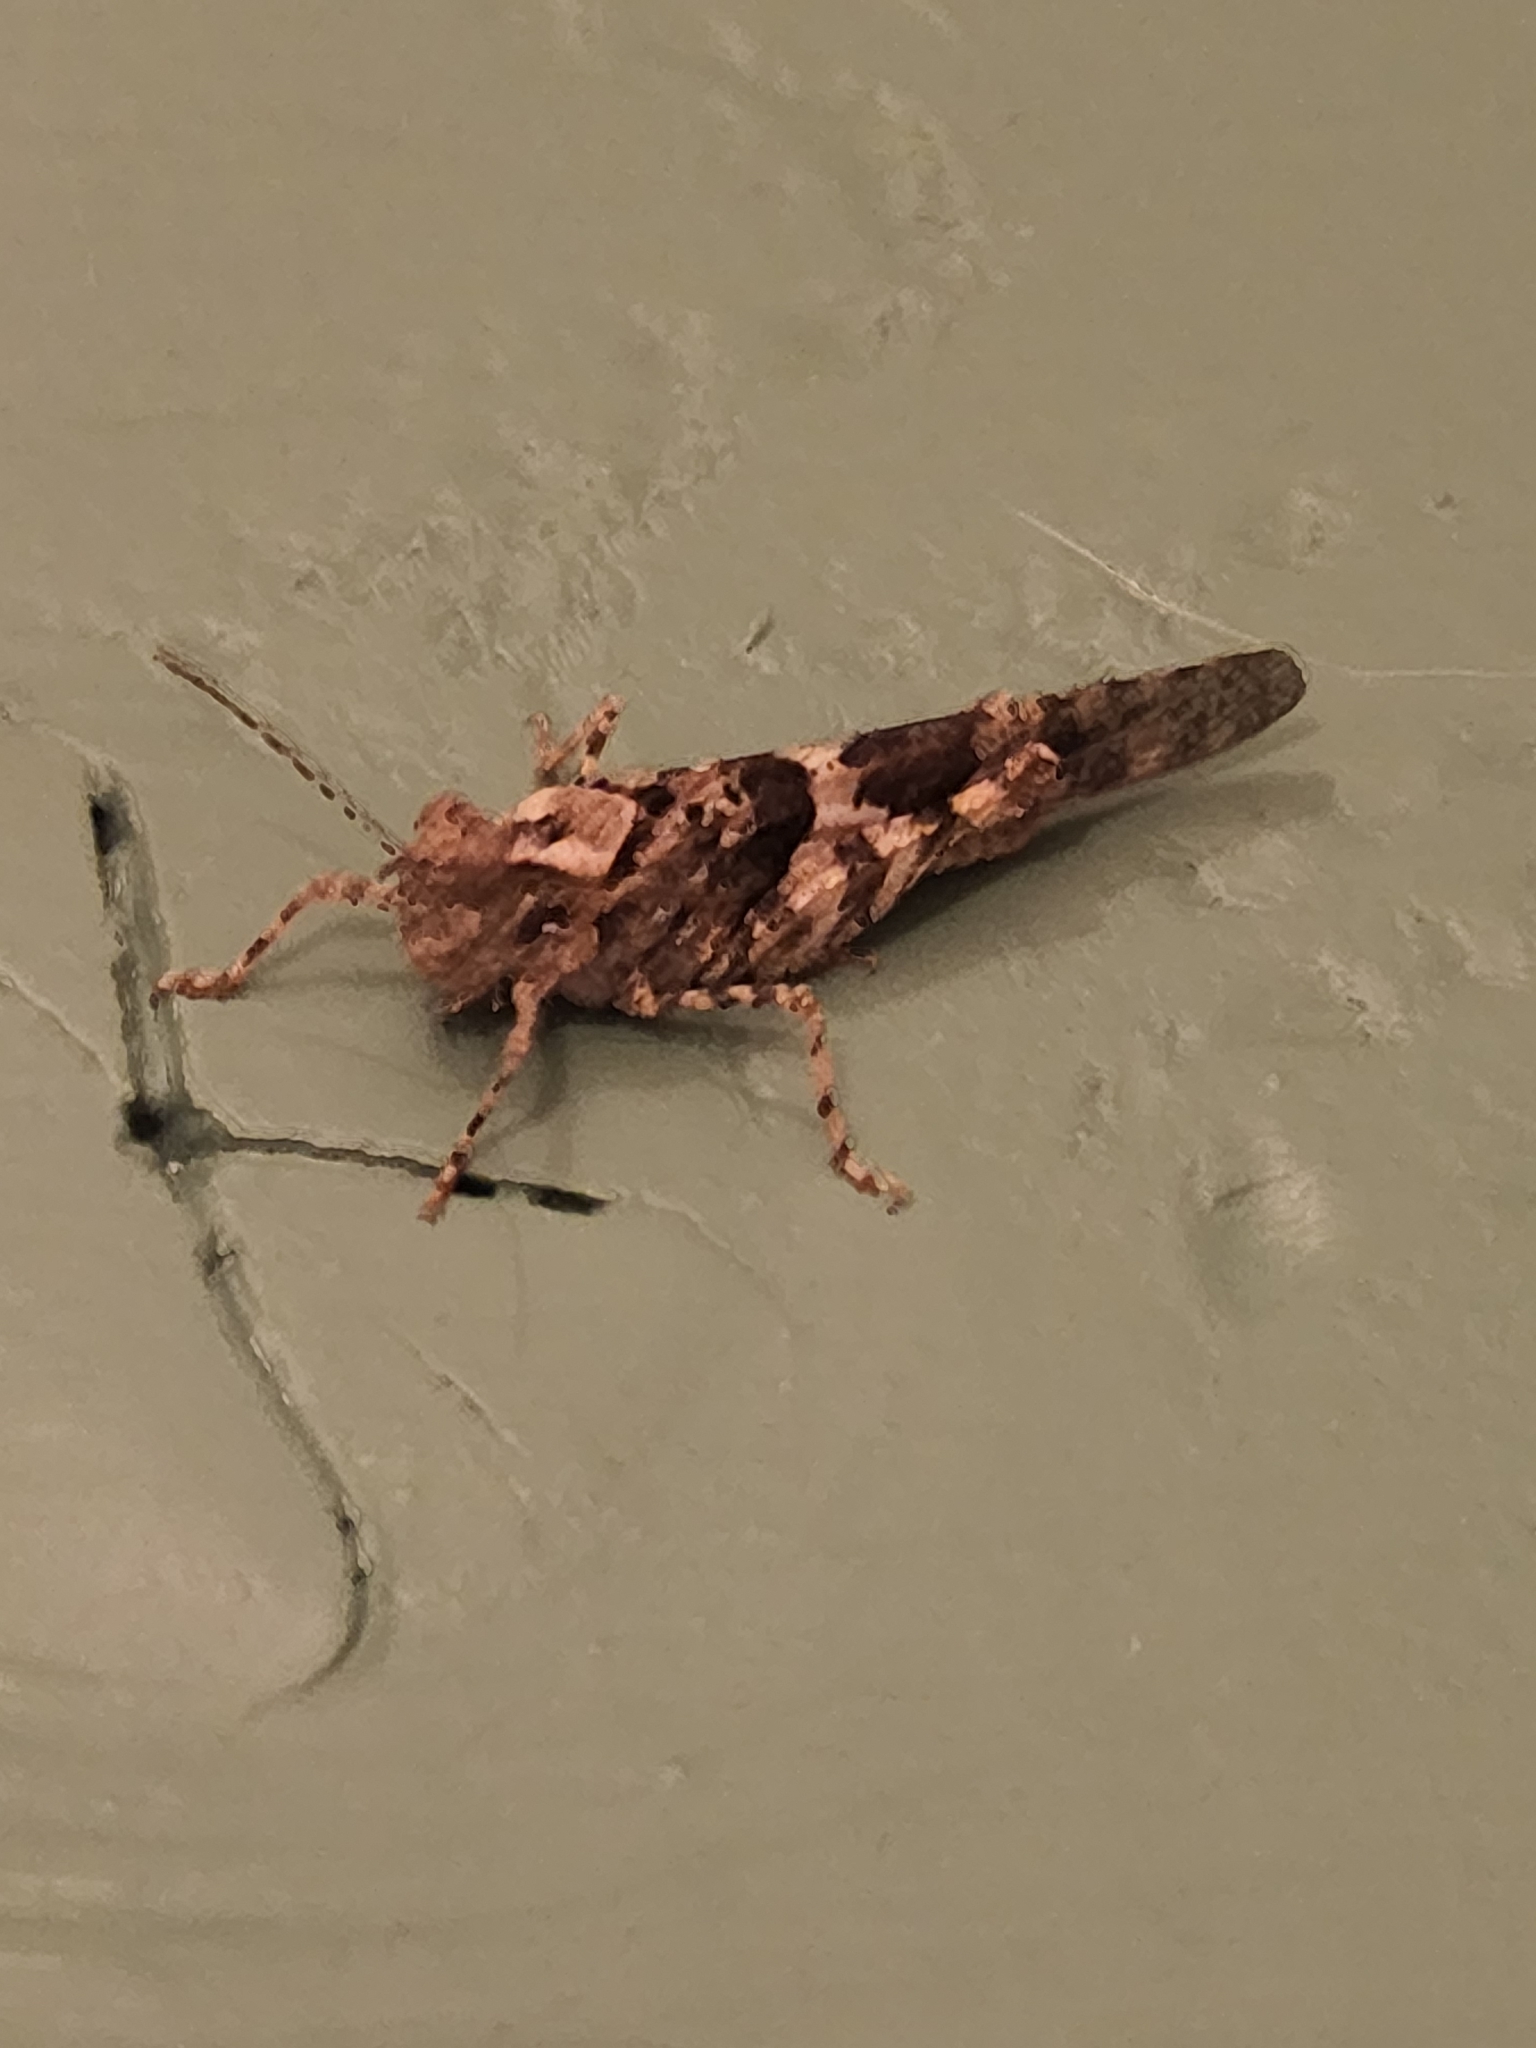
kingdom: Animalia
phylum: Arthropoda
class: Insecta
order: Orthoptera
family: Acrididae
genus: Trimerotropis
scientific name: Trimerotropis pallidipennis
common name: Pallid-winged grasshopper
